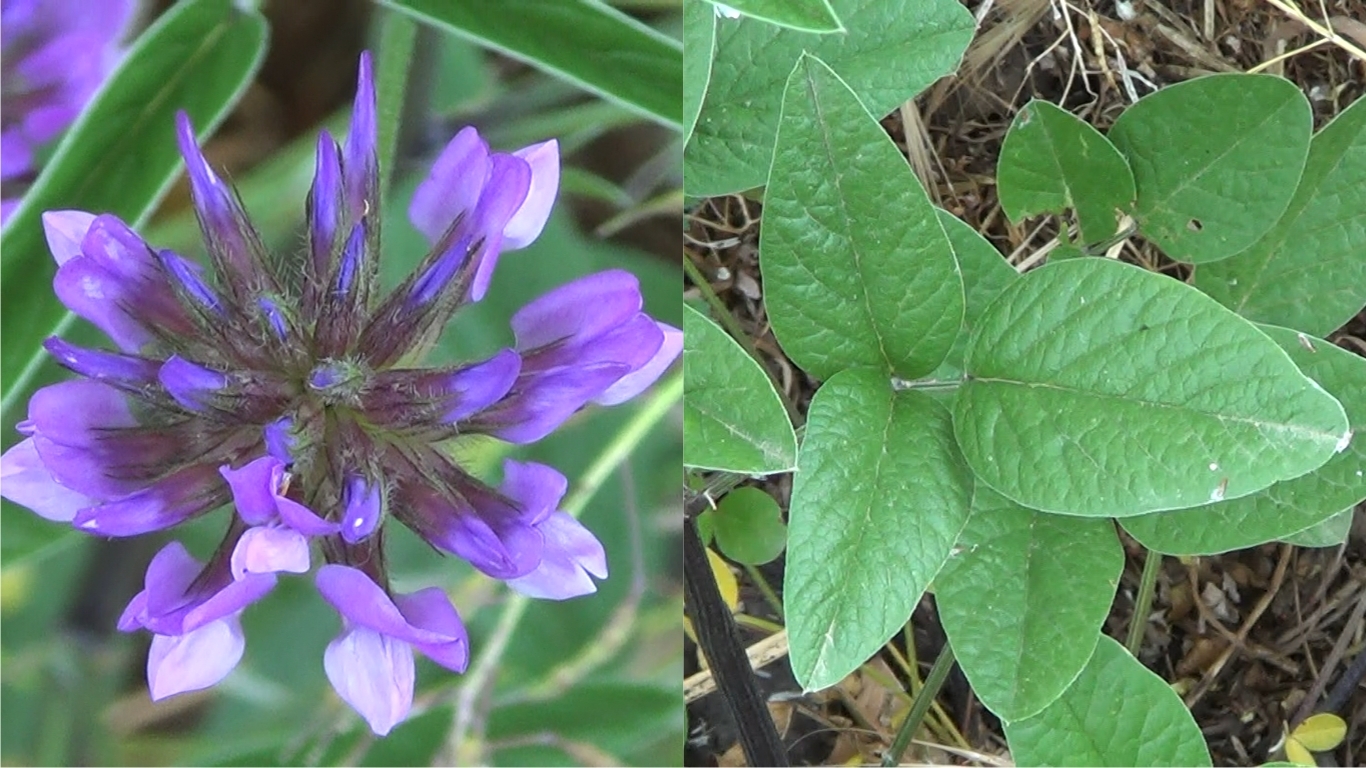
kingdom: Plantae
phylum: Tracheophyta
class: Magnoliopsida
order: Fabales
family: Fabaceae
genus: Bituminaria
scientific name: Bituminaria bituminosa
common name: Arabian pea
